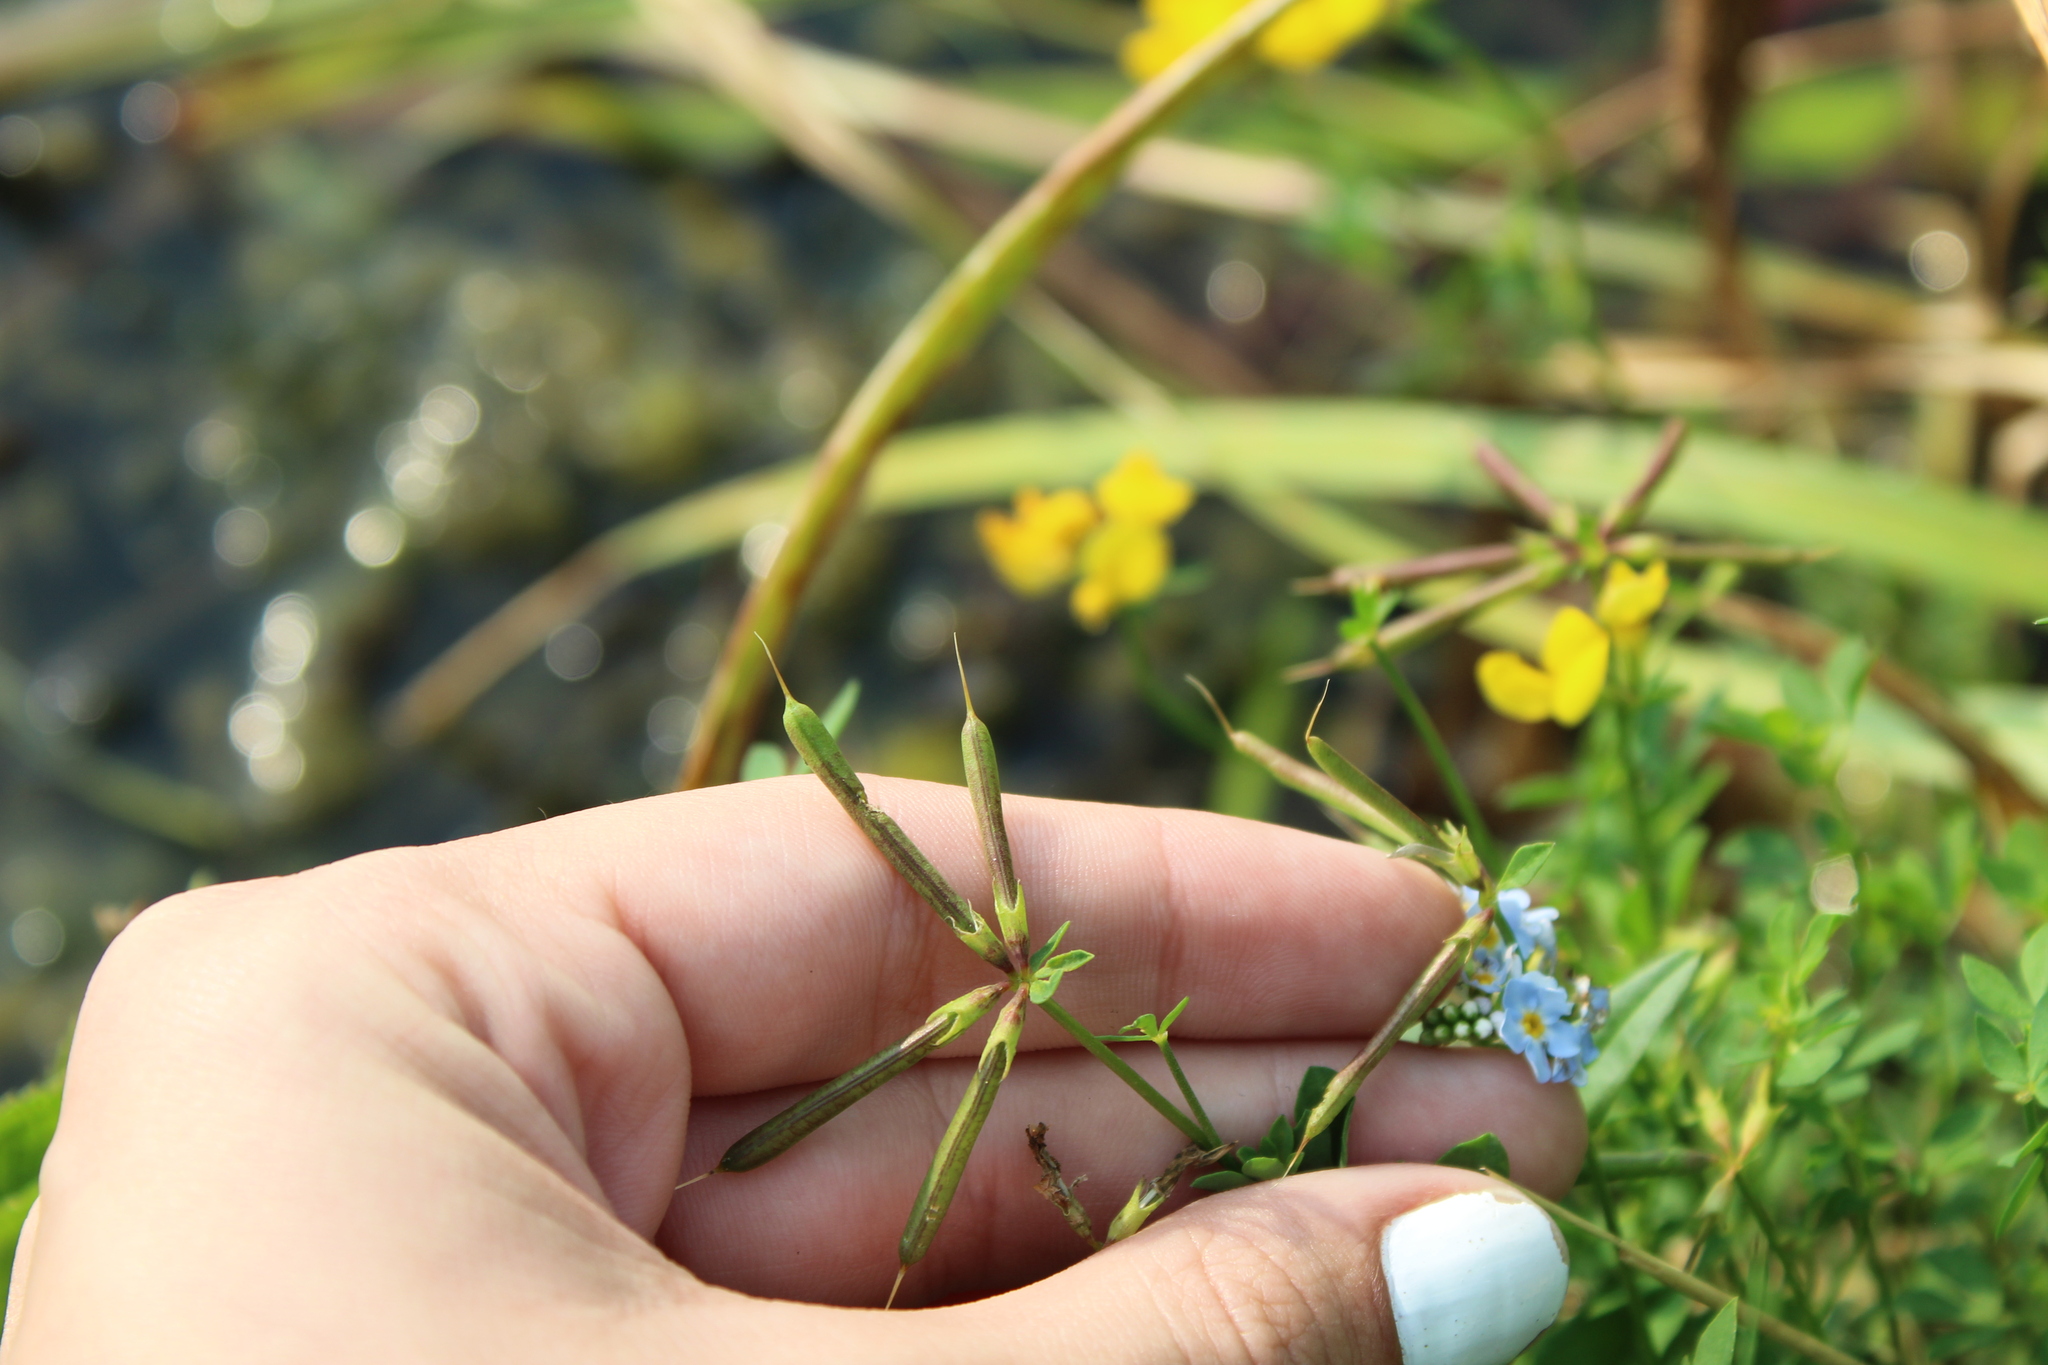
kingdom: Plantae
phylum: Tracheophyta
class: Magnoliopsida
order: Fabales
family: Fabaceae
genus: Lotus
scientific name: Lotus corniculatus
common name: Common bird's-foot-trefoil
